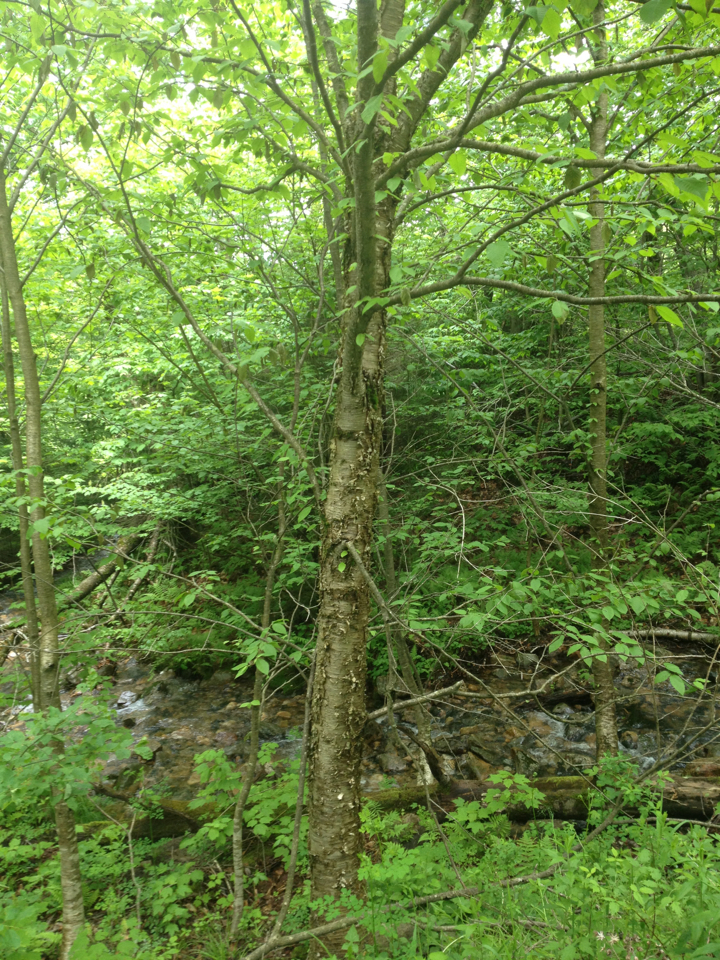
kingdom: Plantae
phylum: Tracheophyta
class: Magnoliopsida
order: Fagales
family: Betulaceae
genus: Betula
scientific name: Betula alleghaniensis
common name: Yellow birch
